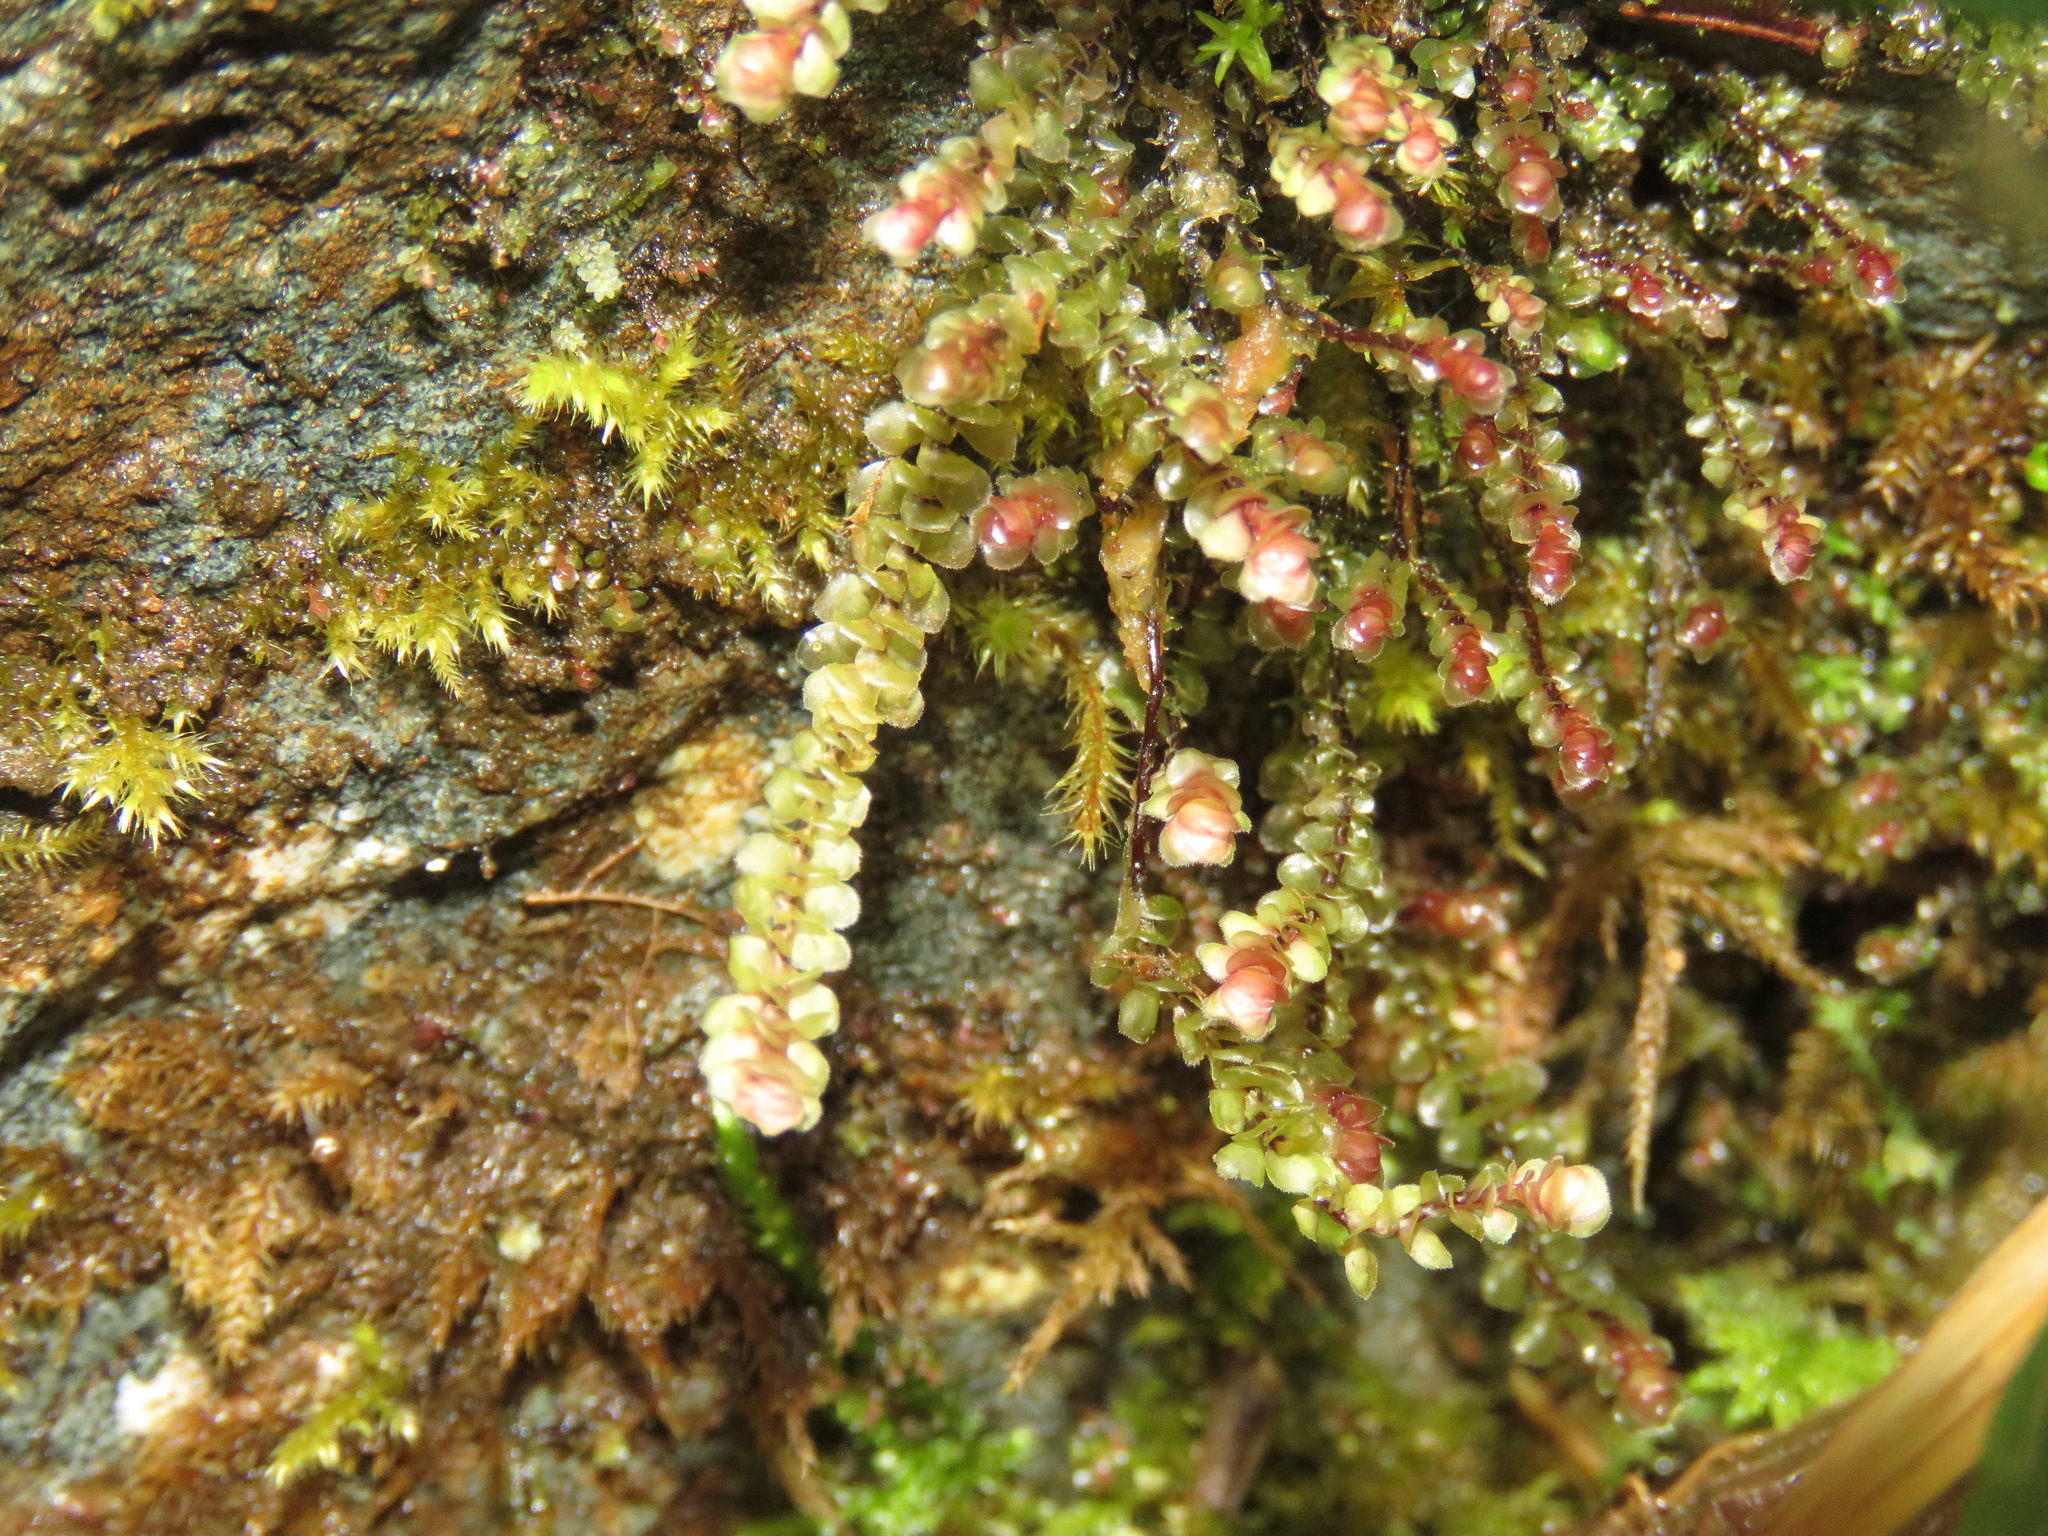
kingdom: Plantae
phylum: Marchantiophyta
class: Jungermanniopsida
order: Jungermanniales
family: Scapaniaceae
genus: Scapania
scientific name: Scapania bolanderi
